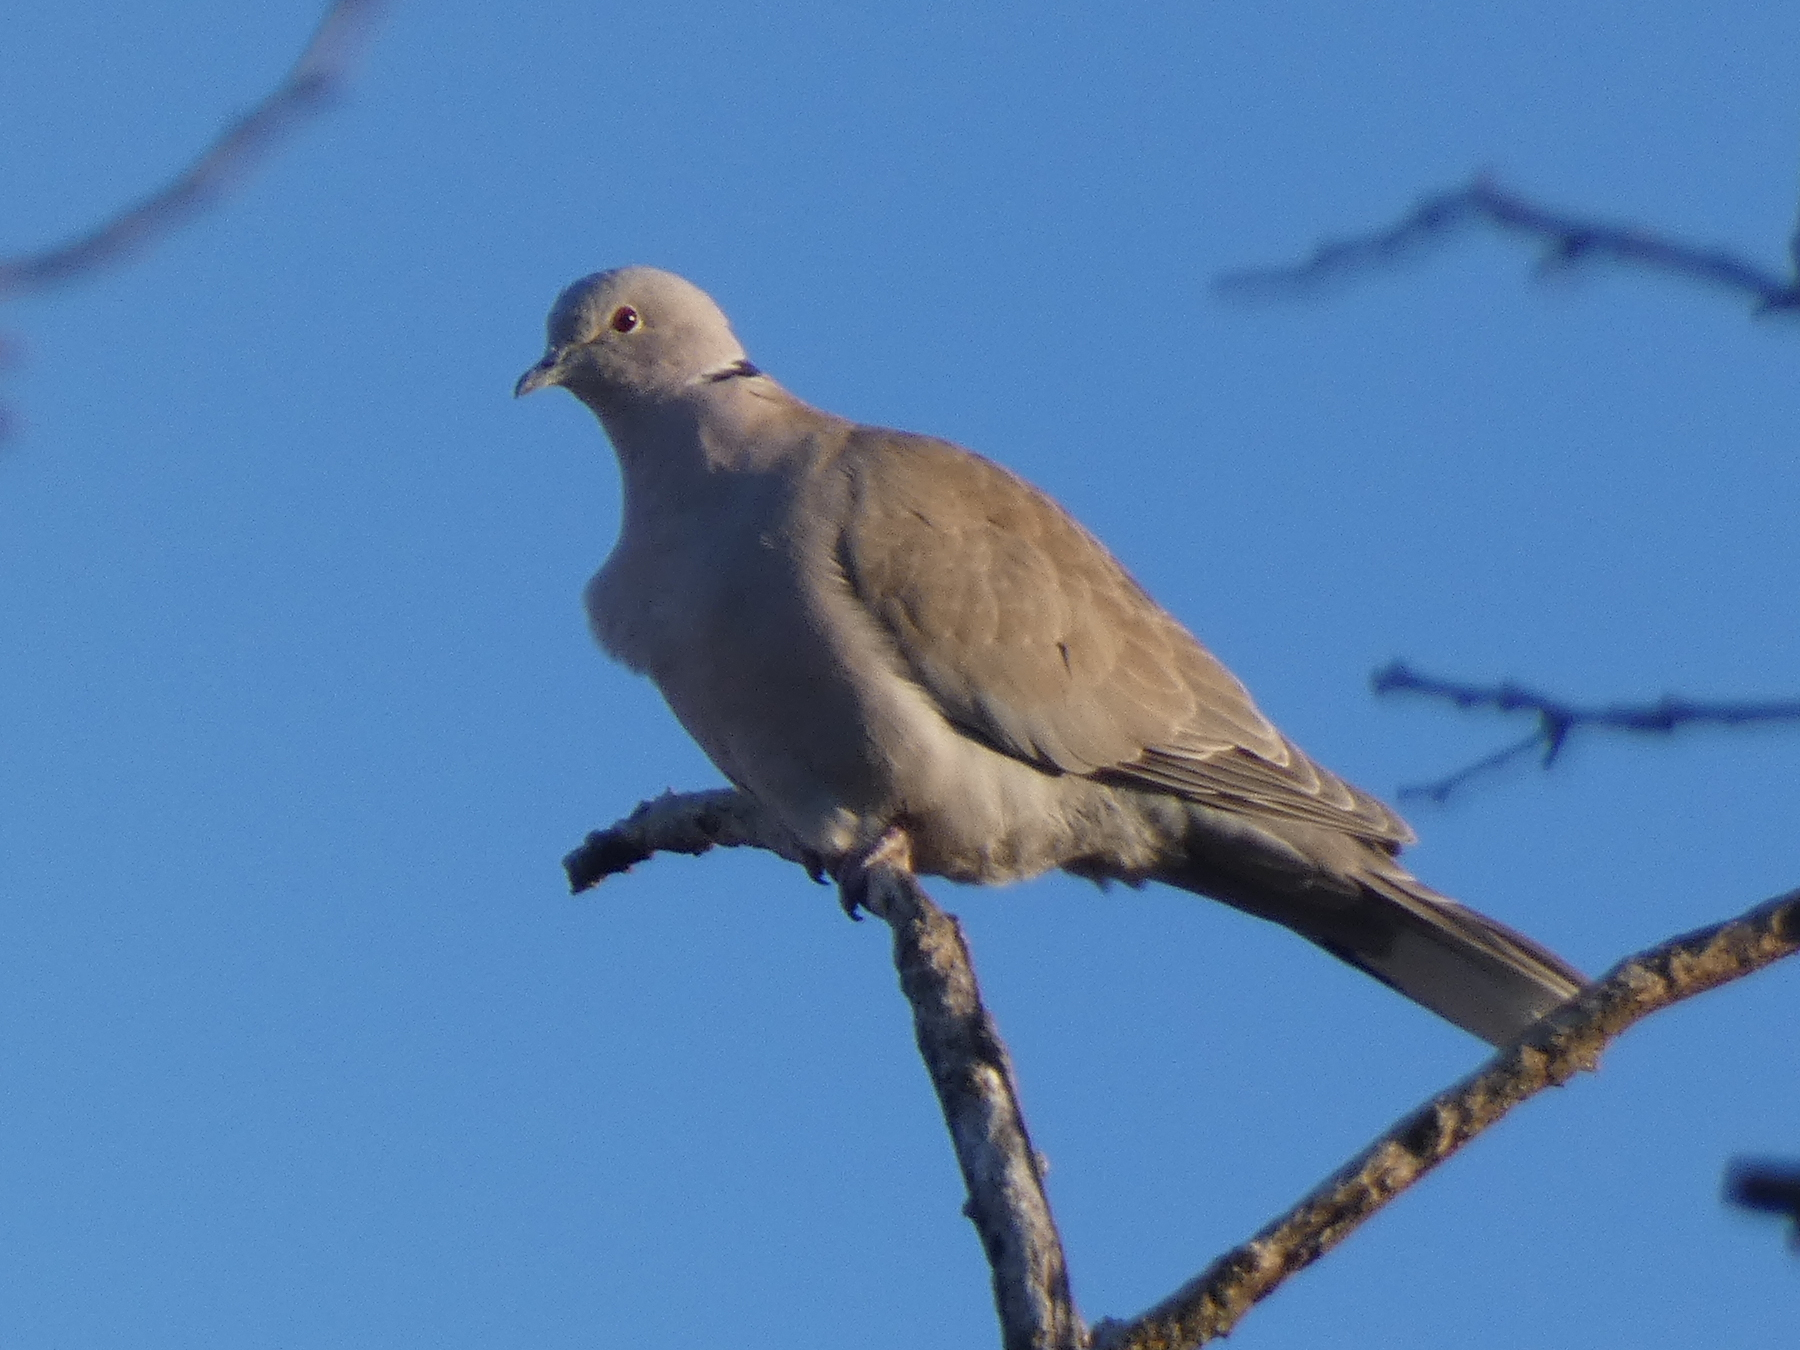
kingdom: Animalia
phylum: Chordata
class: Aves
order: Columbiformes
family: Columbidae
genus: Streptopelia
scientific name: Streptopelia decaocto
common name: Eurasian collared dove
